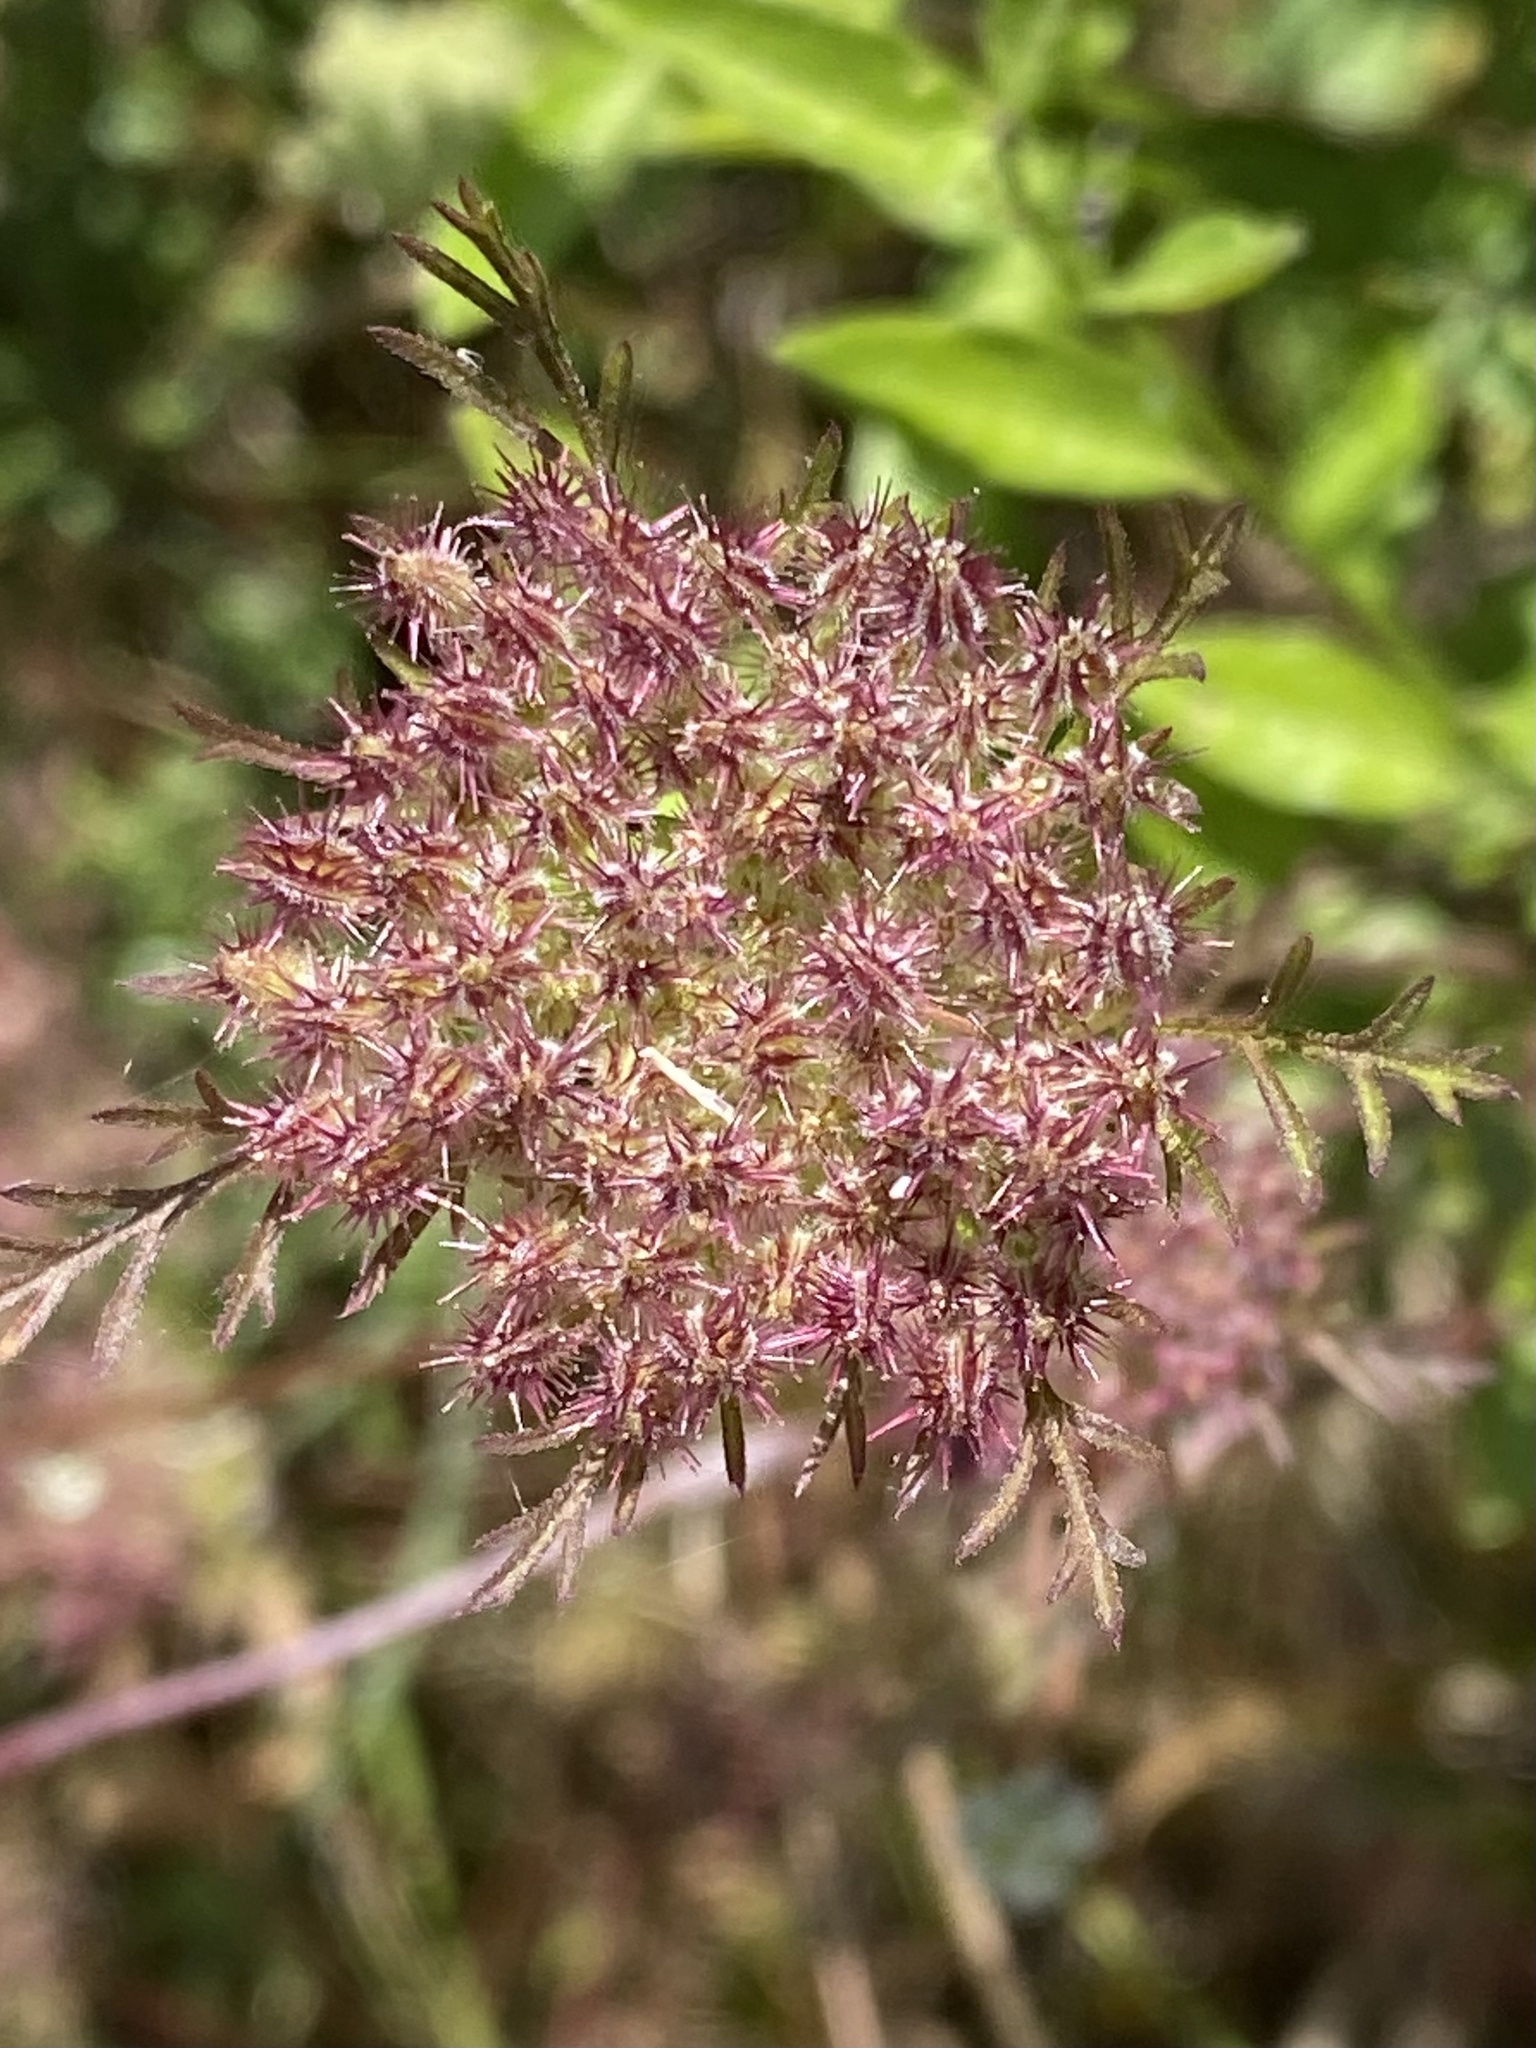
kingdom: Plantae
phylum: Tracheophyta
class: Magnoliopsida
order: Apiales
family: Apiaceae
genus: Daucus
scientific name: Daucus pusillus
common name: Southwest wild carrot
